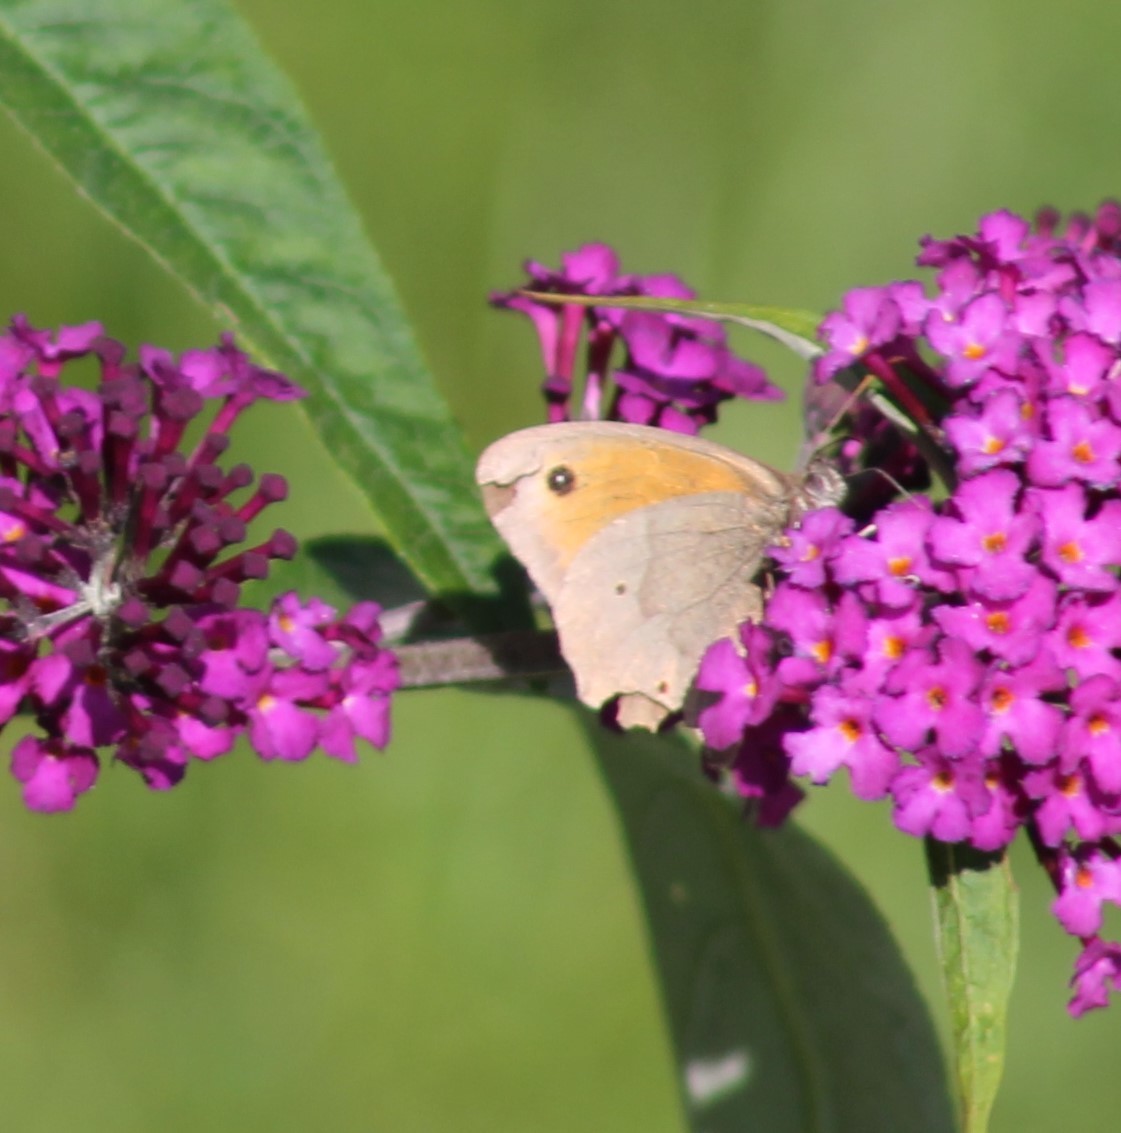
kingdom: Animalia
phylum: Arthropoda
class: Insecta
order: Lepidoptera
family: Nymphalidae
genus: Maniola
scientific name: Maniola jurtina
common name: Meadow brown
